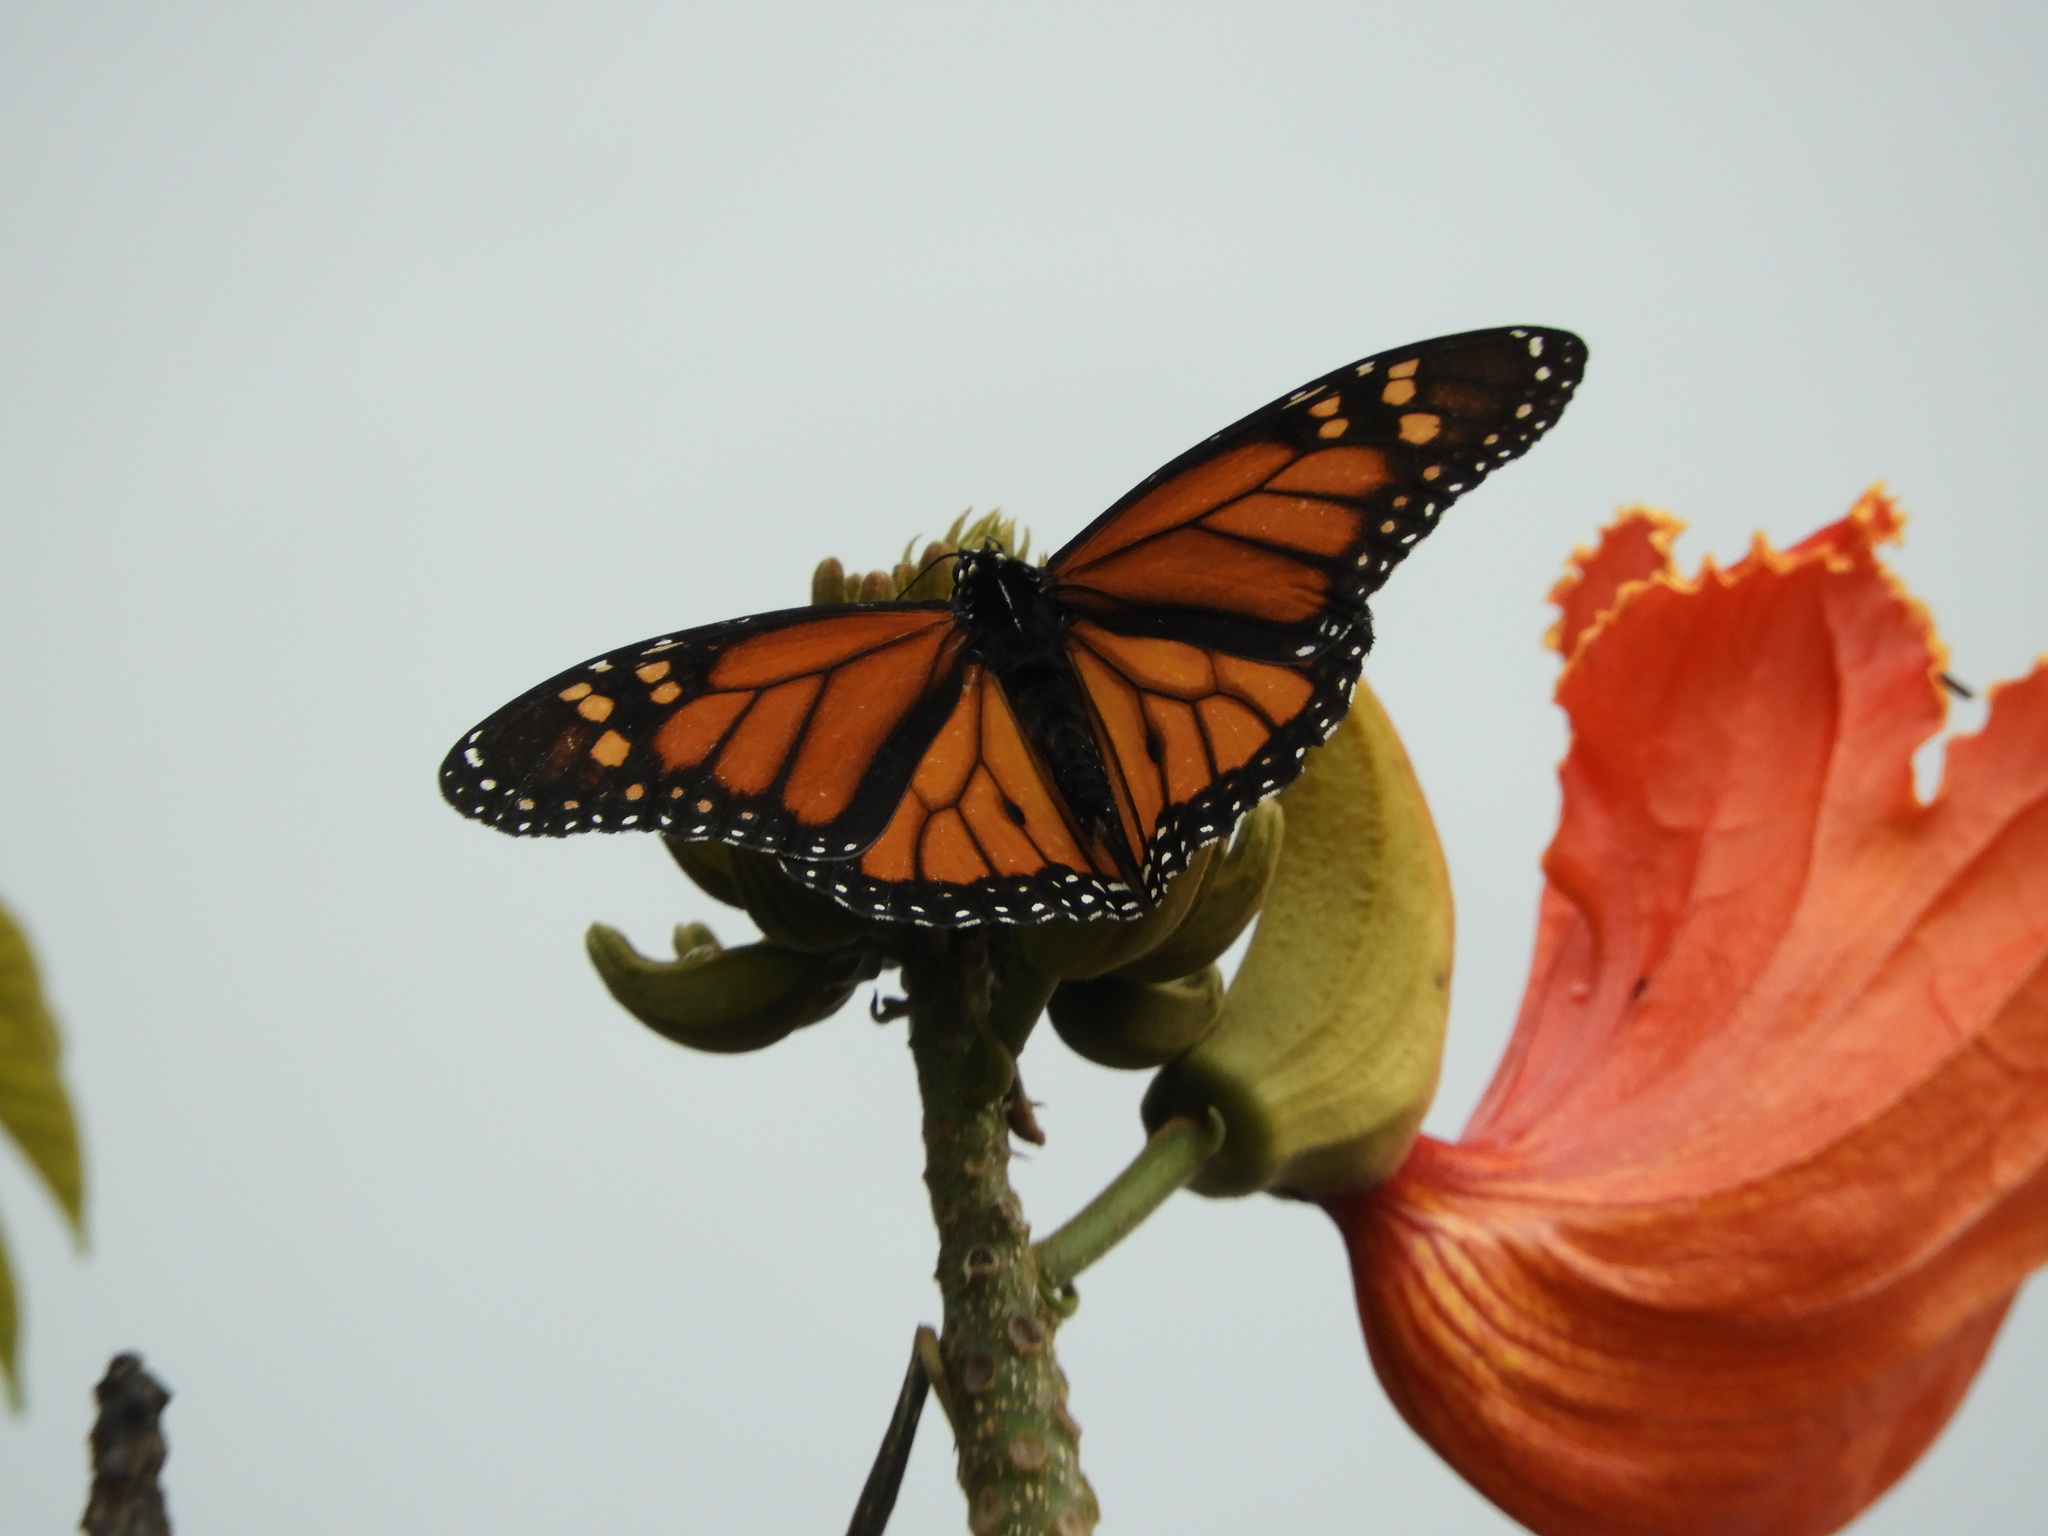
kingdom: Animalia
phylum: Arthropoda
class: Insecta
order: Lepidoptera
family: Nymphalidae
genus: Danaus
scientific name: Danaus plexippus
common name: Monarch
